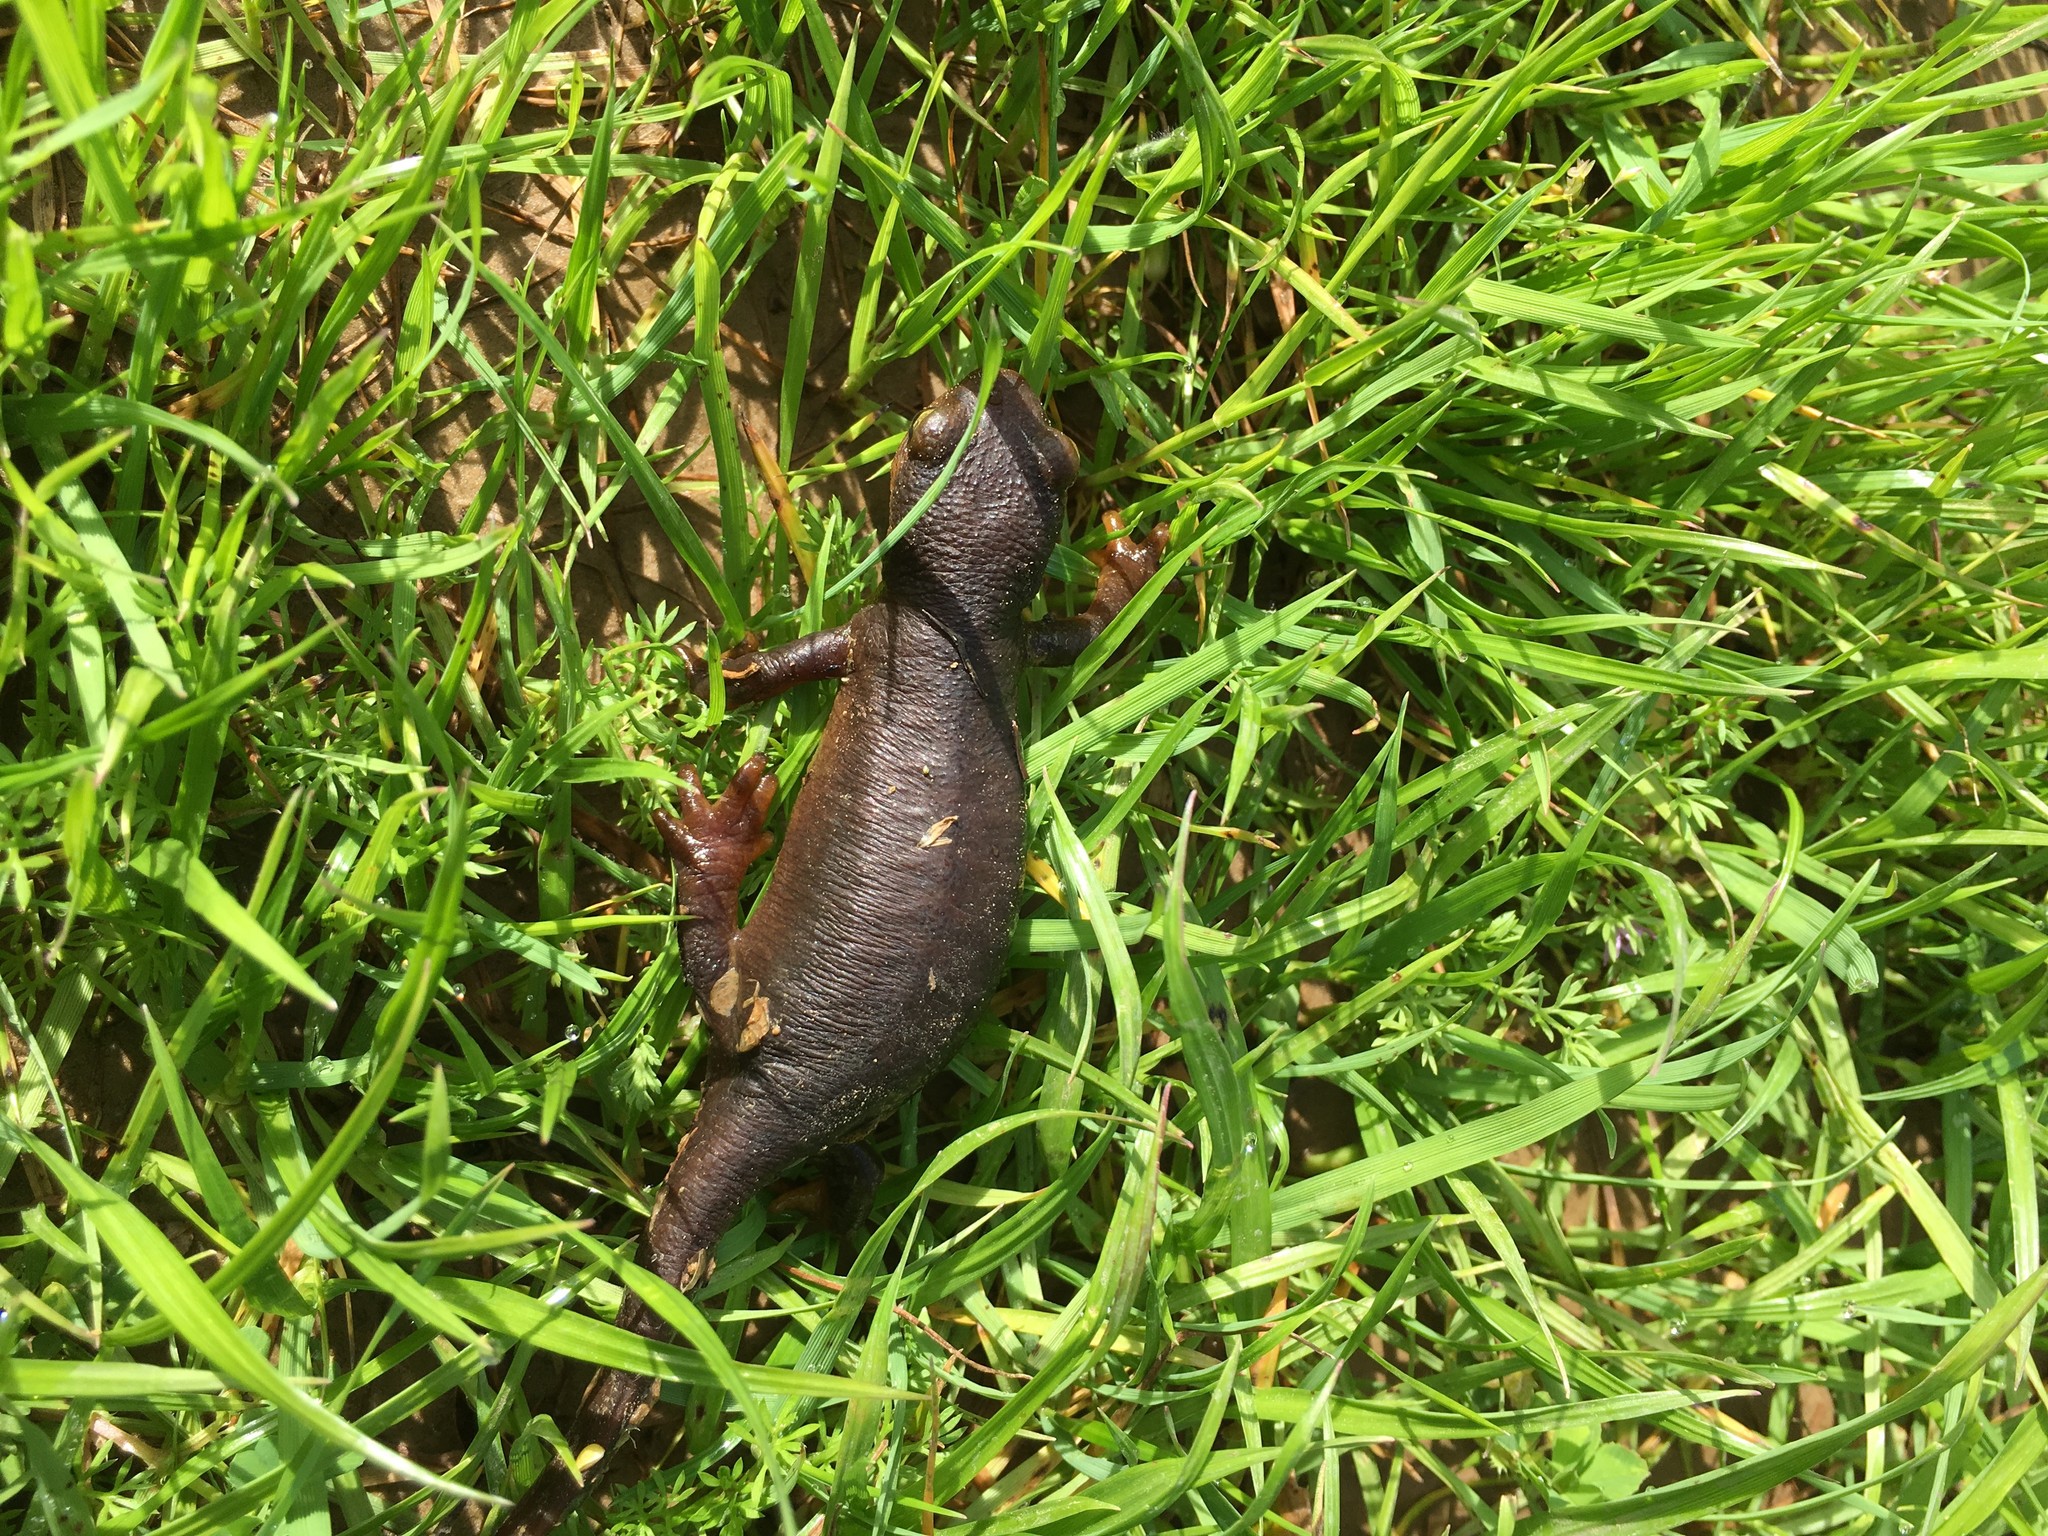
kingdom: Animalia
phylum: Chordata
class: Amphibia
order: Caudata
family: Salamandridae
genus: Taricha
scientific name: Taricha torosa
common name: California newt
